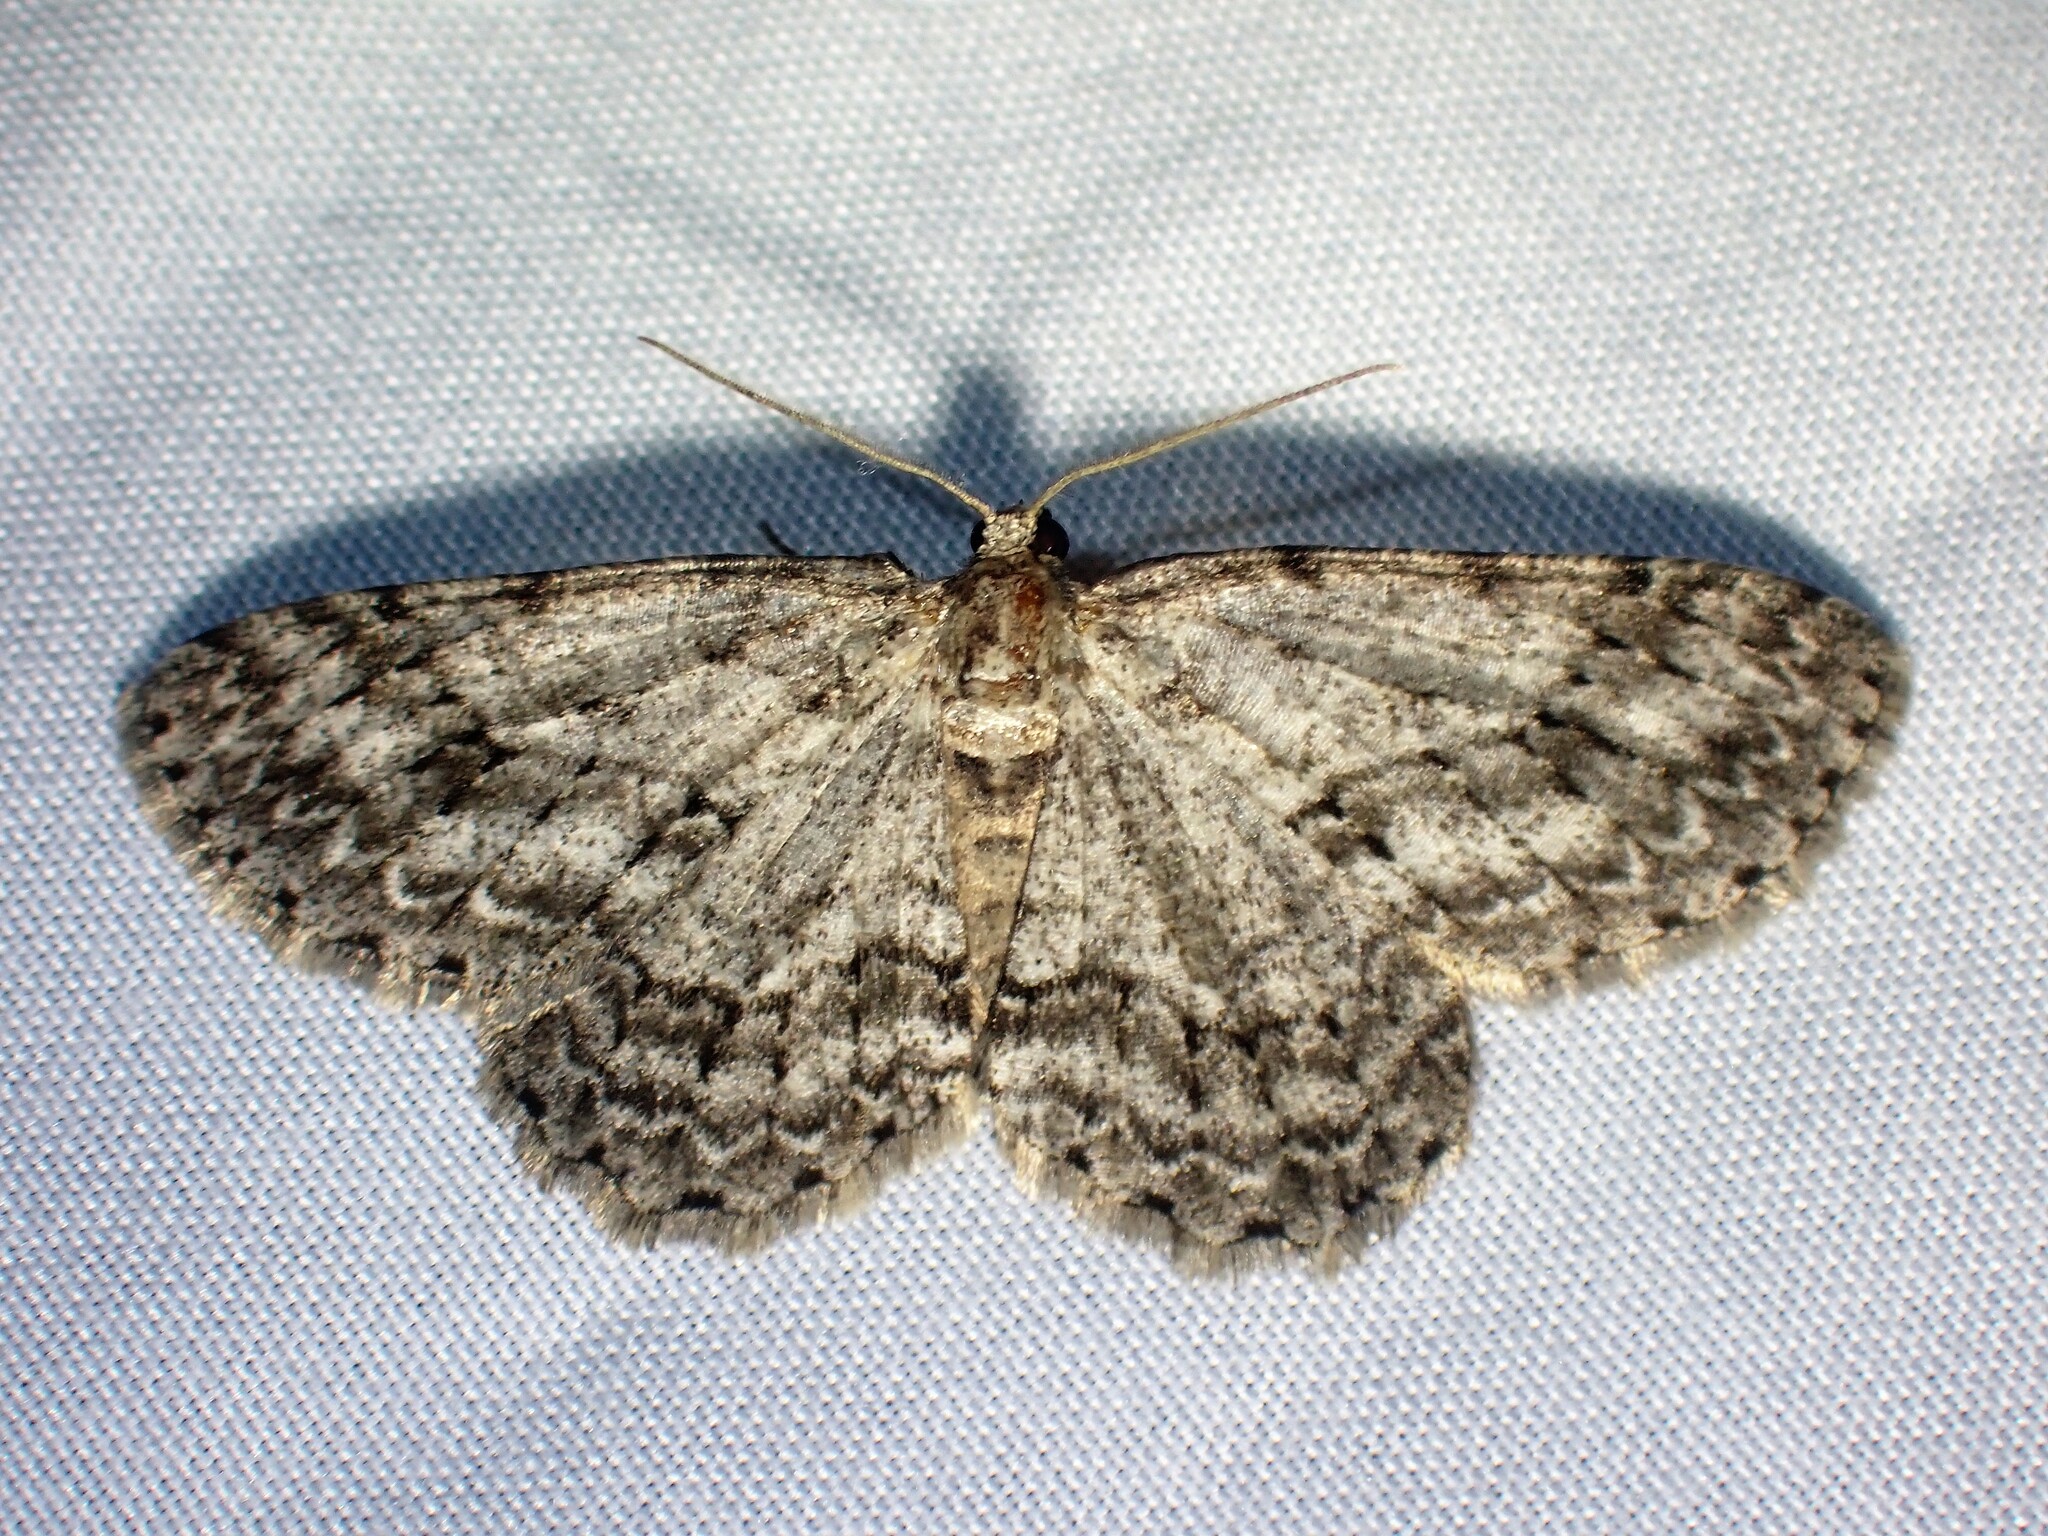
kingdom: Animalia
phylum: Arthropoda
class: Insecta
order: Lepidoptera
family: Geometridae
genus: Ectropis
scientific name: Ectropis crepuscularia
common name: Engrailed
